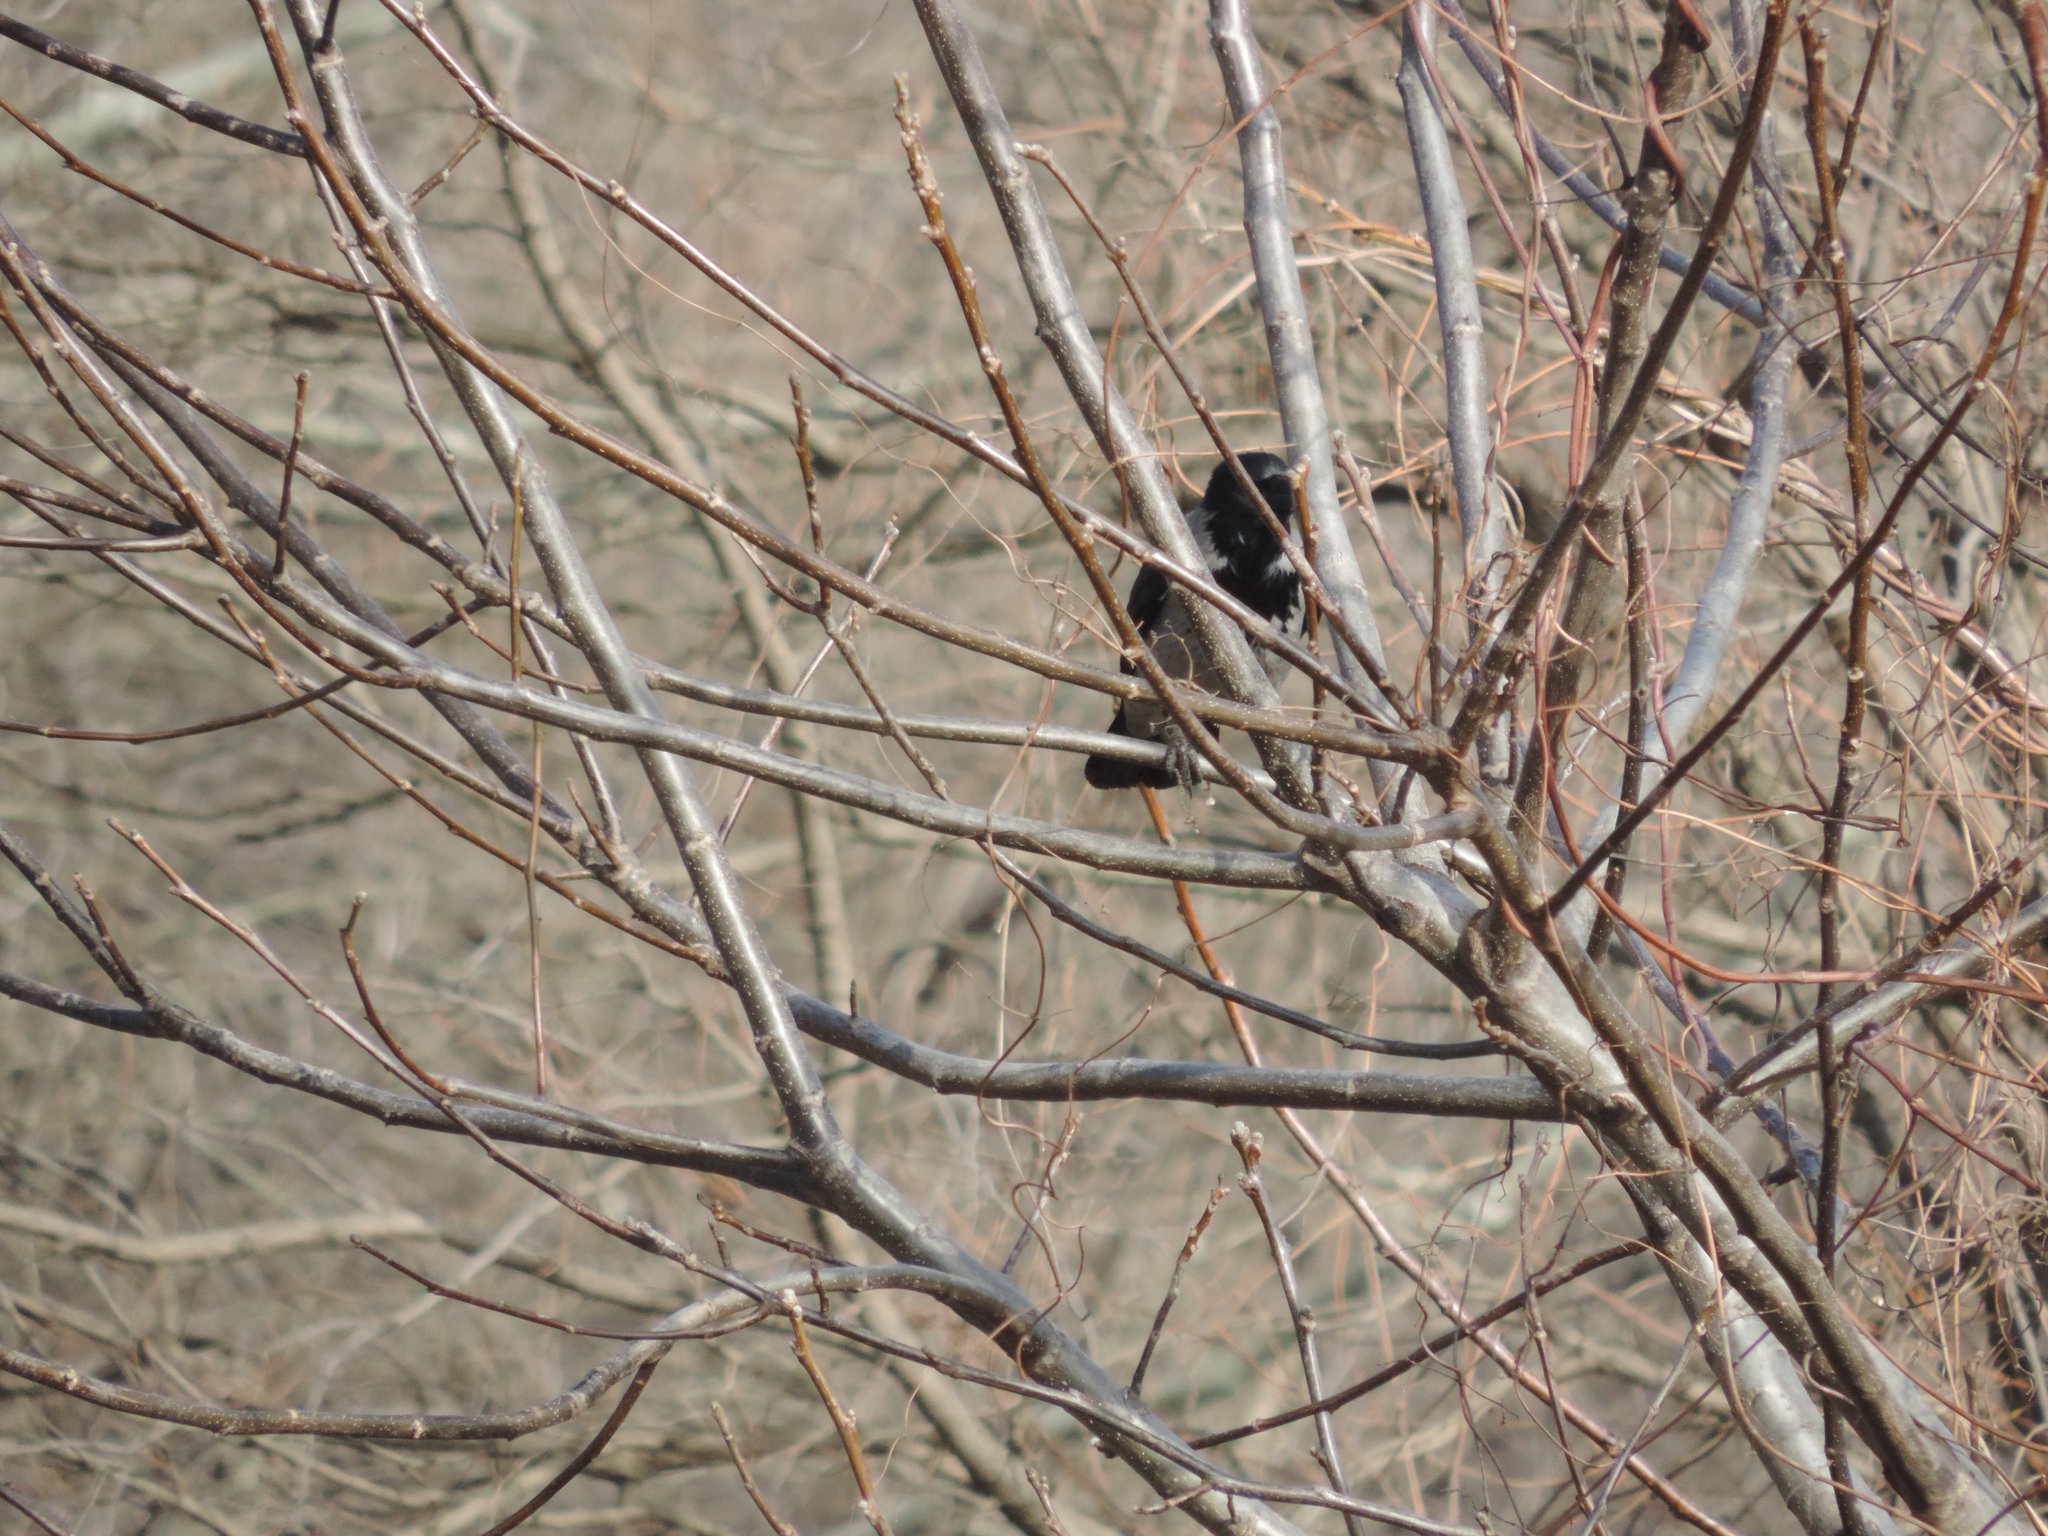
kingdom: Animalia
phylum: Chordata
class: Aves
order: Passeriformes
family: Corvidae
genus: Corvus
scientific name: Corvus cornix
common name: Hooded crow
